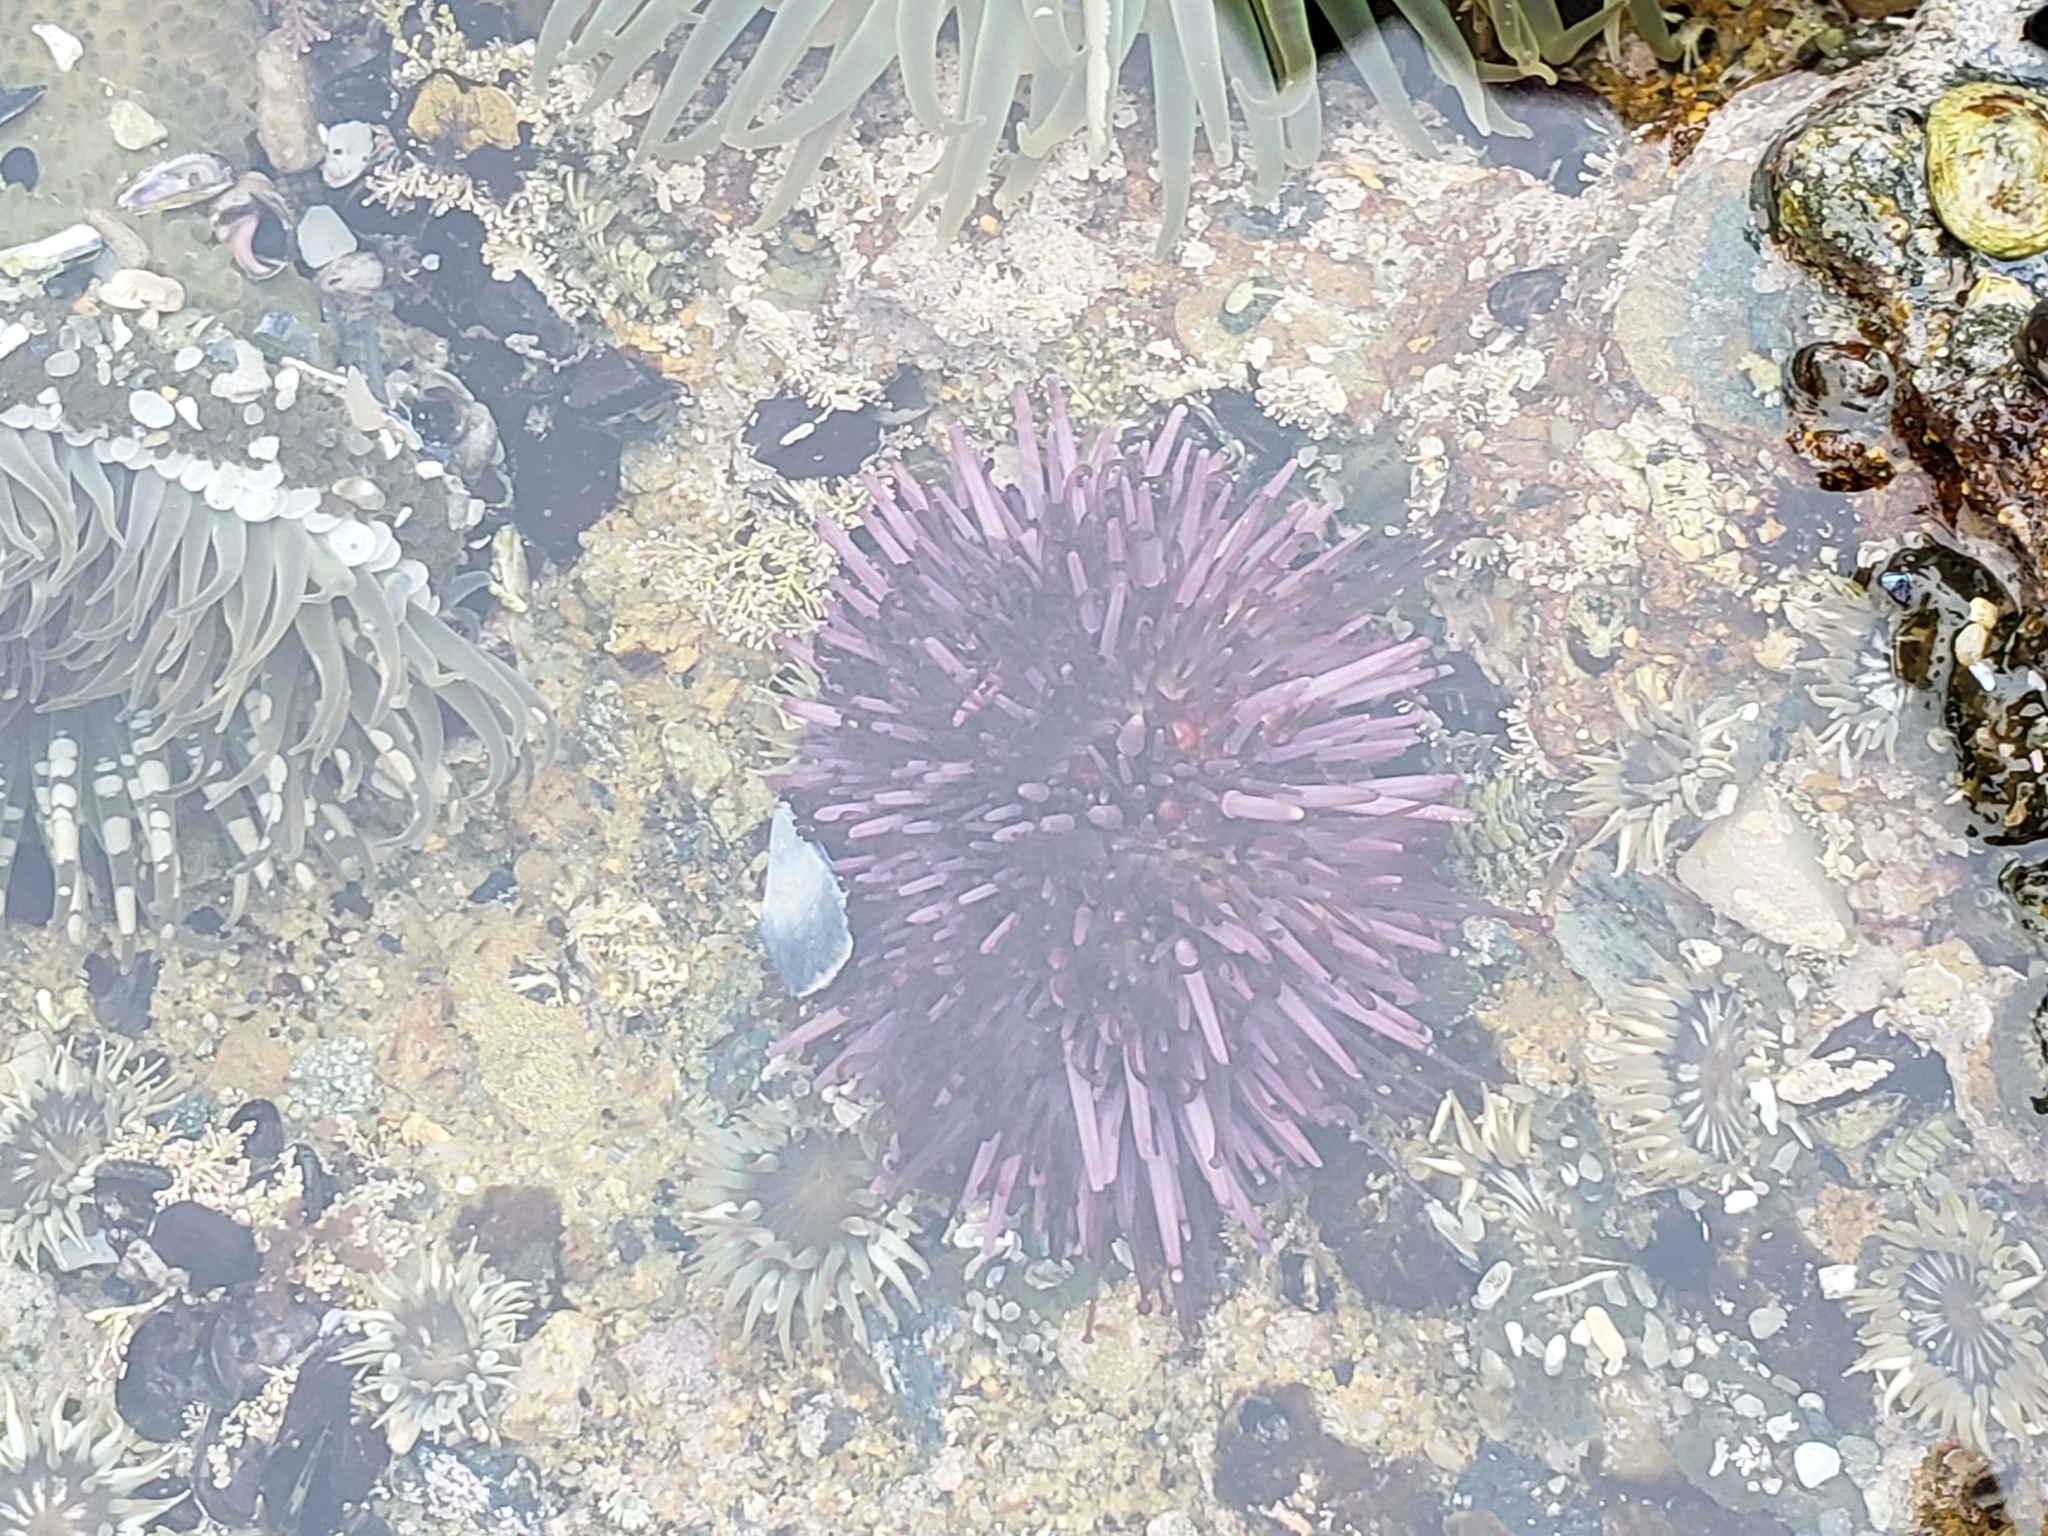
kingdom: Animalia
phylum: Echinodermata
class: Echinoidea
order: Camarodonta
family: Strongylocentrotidae
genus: Strongylocentrotus
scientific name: Strongylocentrotus purpuratus
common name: Purple sea urchin
